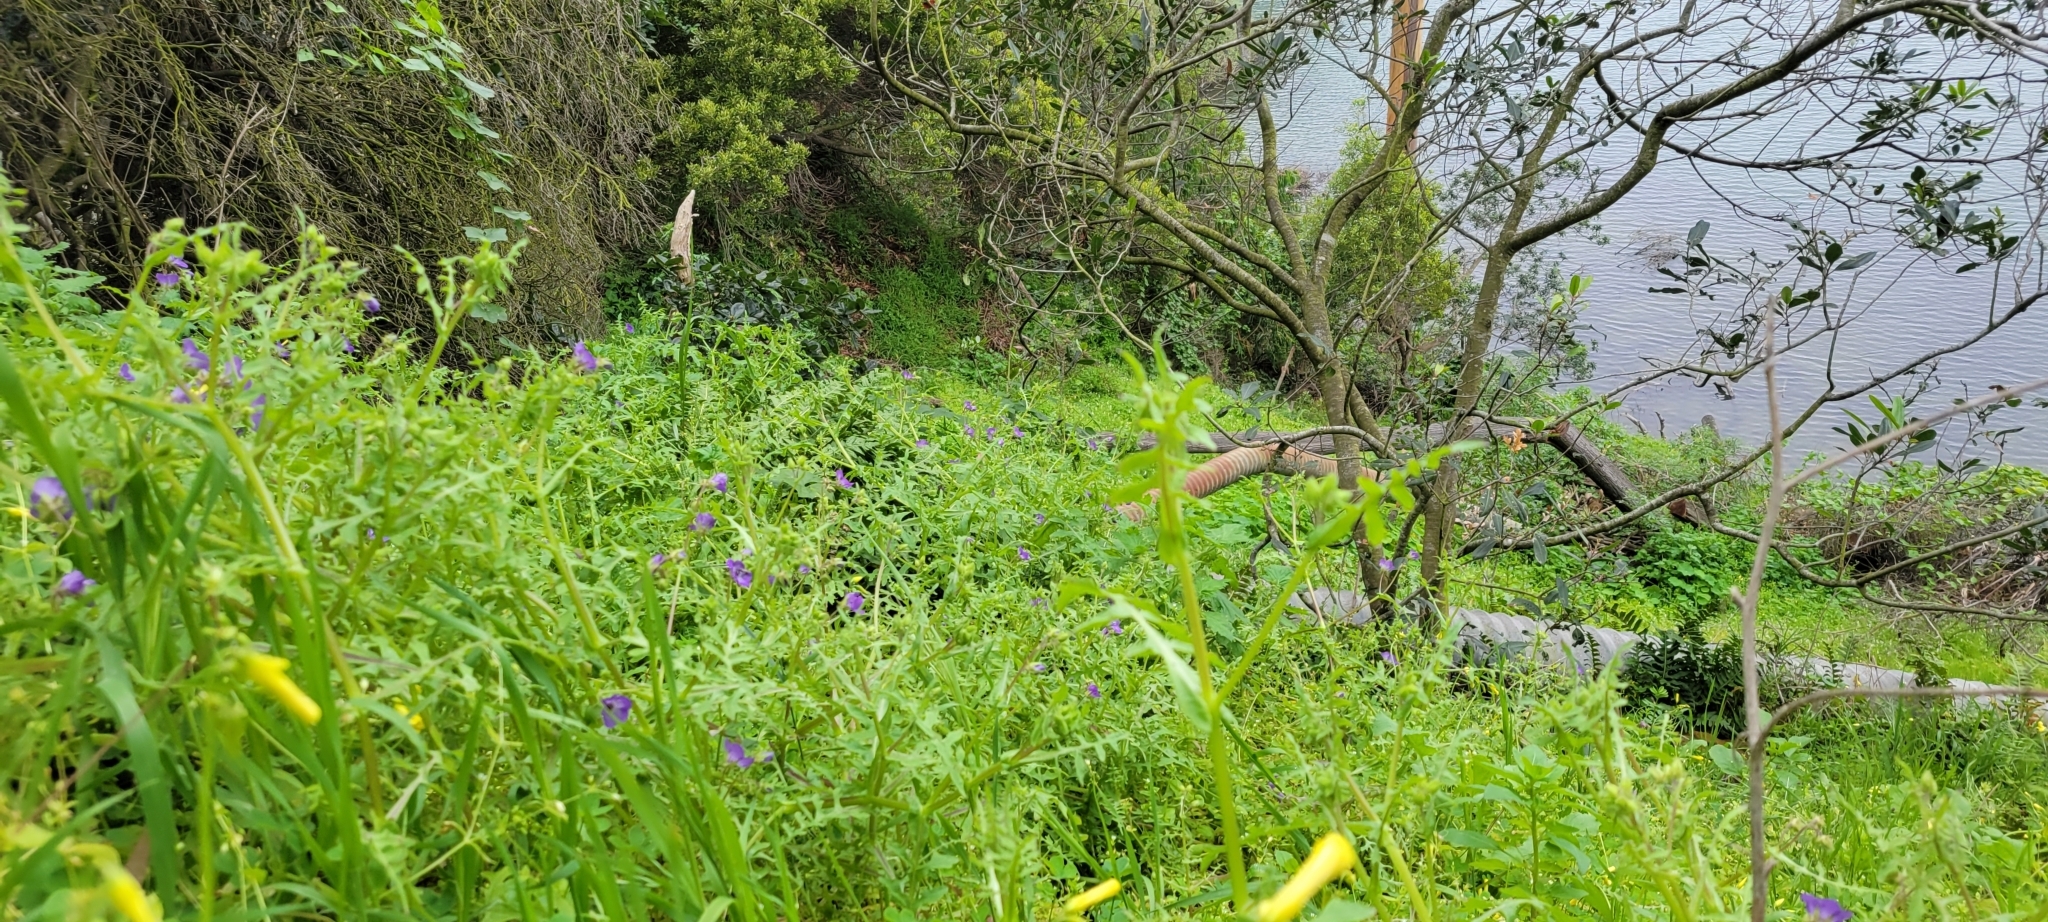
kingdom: Plantae
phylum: Tracheophyta
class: Magnoliopsida
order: Boraginales
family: Hydrophyllaceae
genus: Pholistoma
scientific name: Pholistoma auritum
